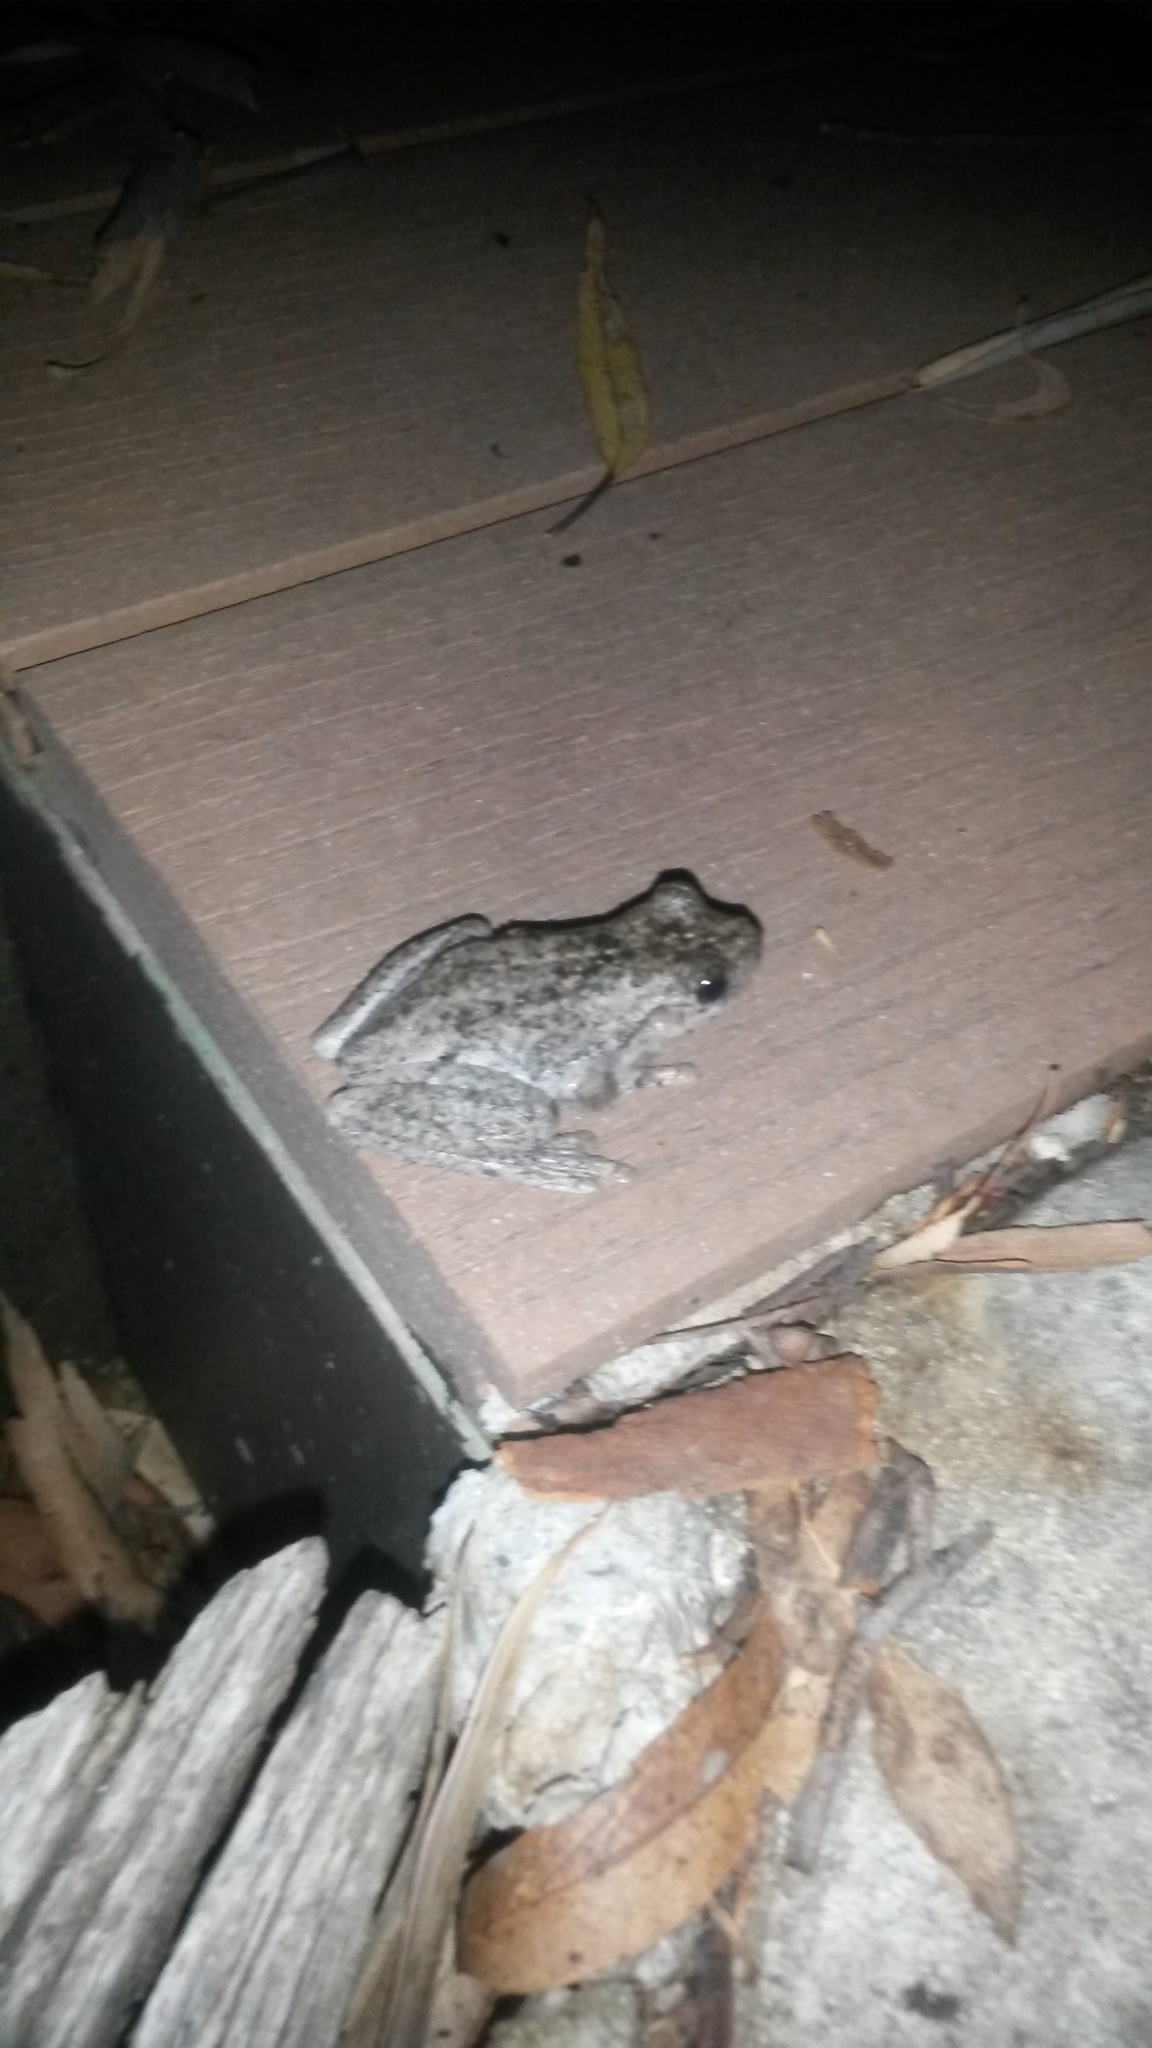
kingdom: Animalia
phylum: Chordata
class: Amphibia
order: Anura
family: Pelodryadidae
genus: Litoria
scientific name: Litoria peronii
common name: Emerald spotted treefrog
